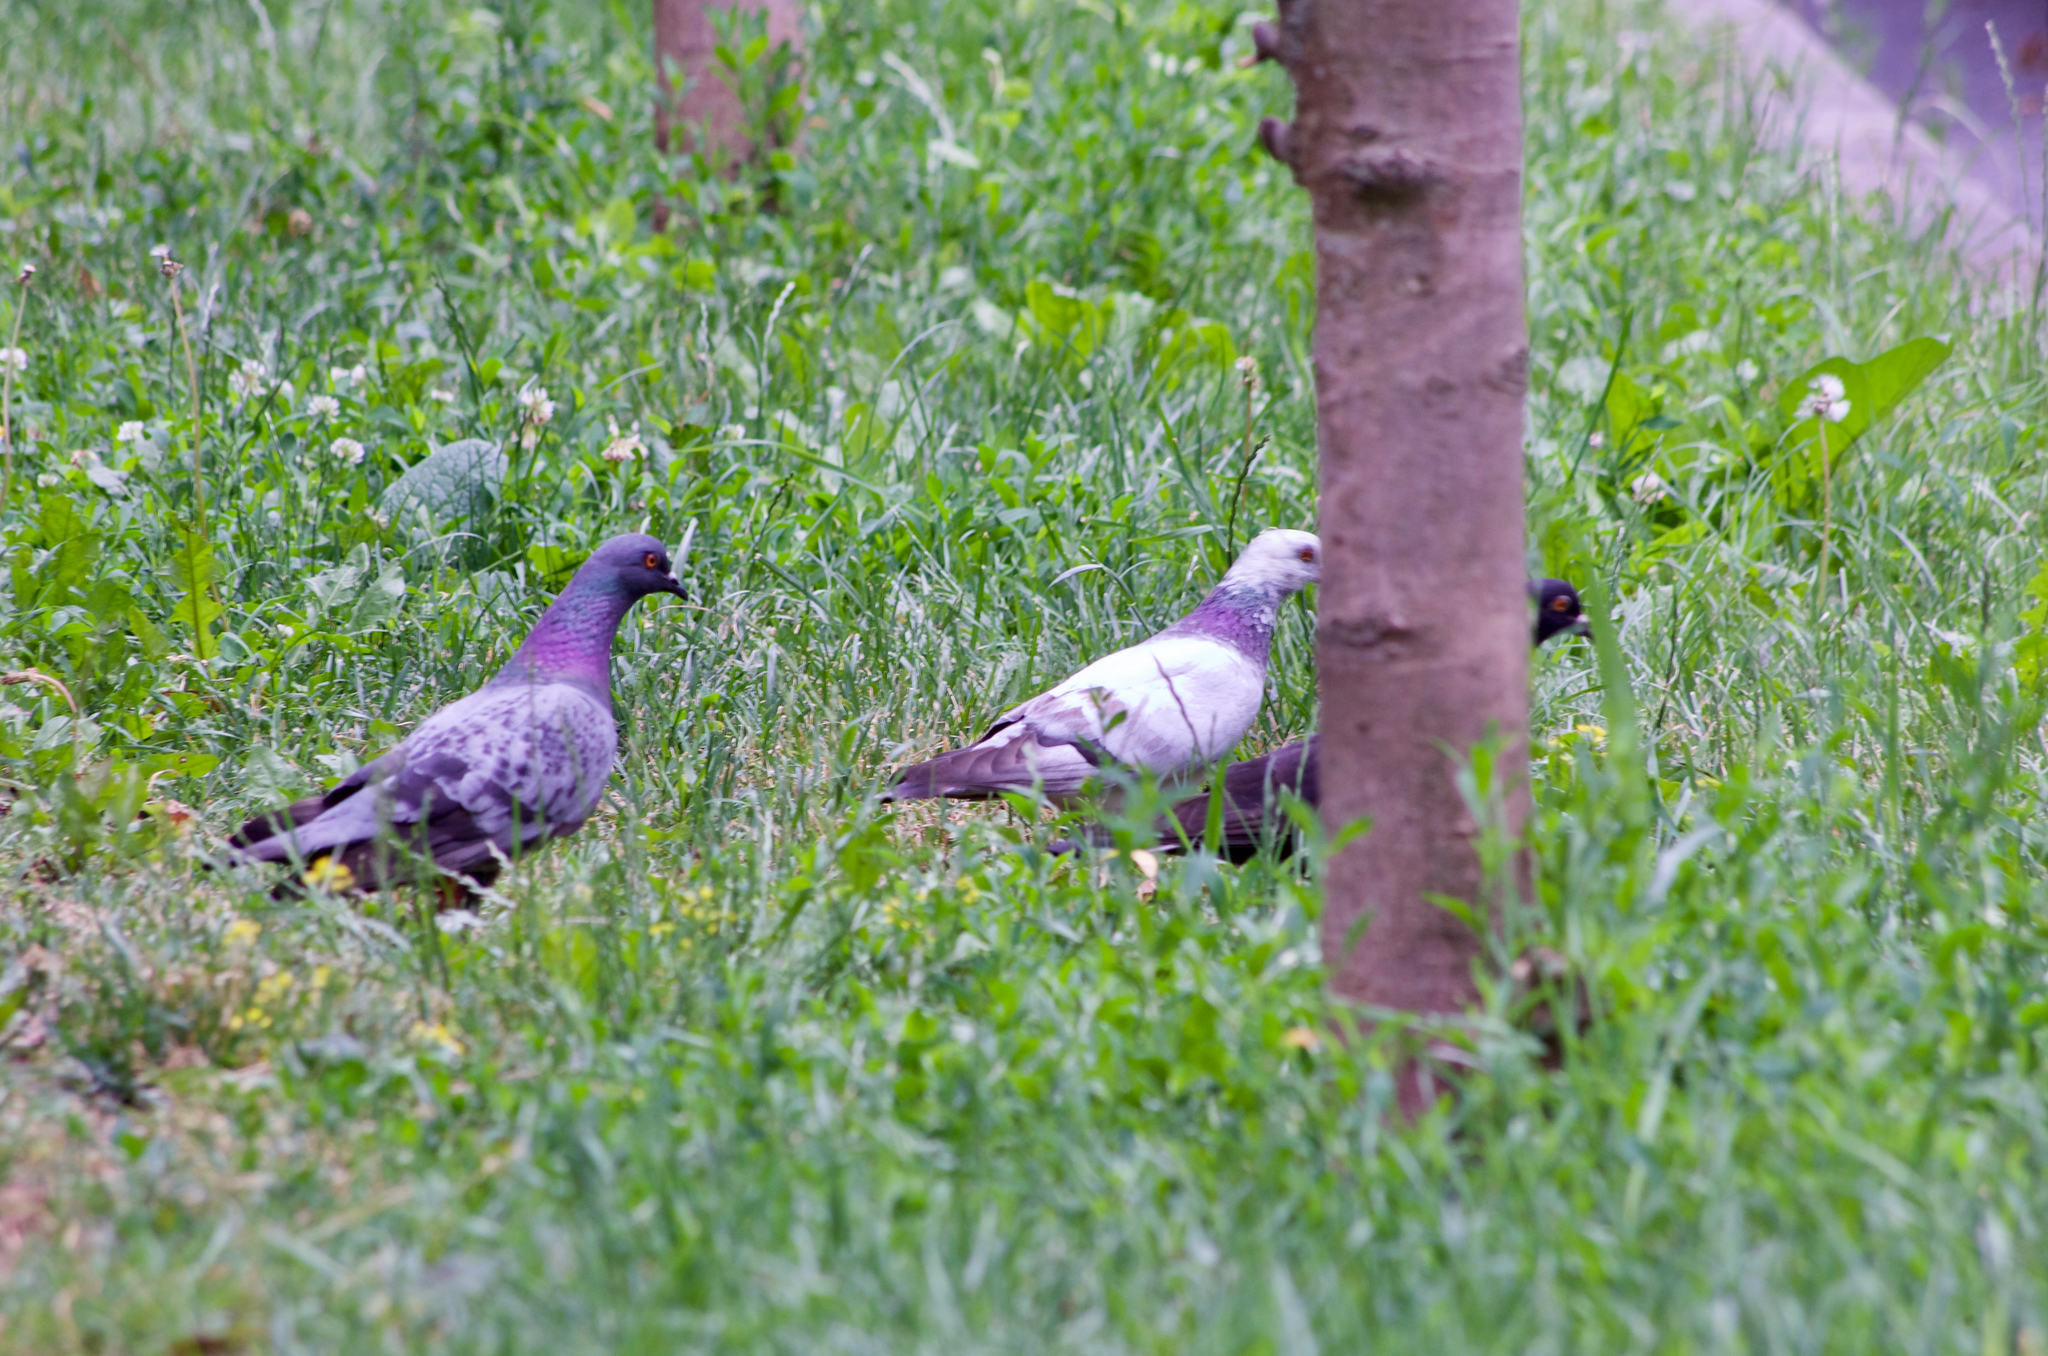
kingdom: Animalia
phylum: Chordata
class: Aves
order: Columbiformes
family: Columbidae
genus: Columba
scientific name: Columba livia
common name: Rock pigeon
